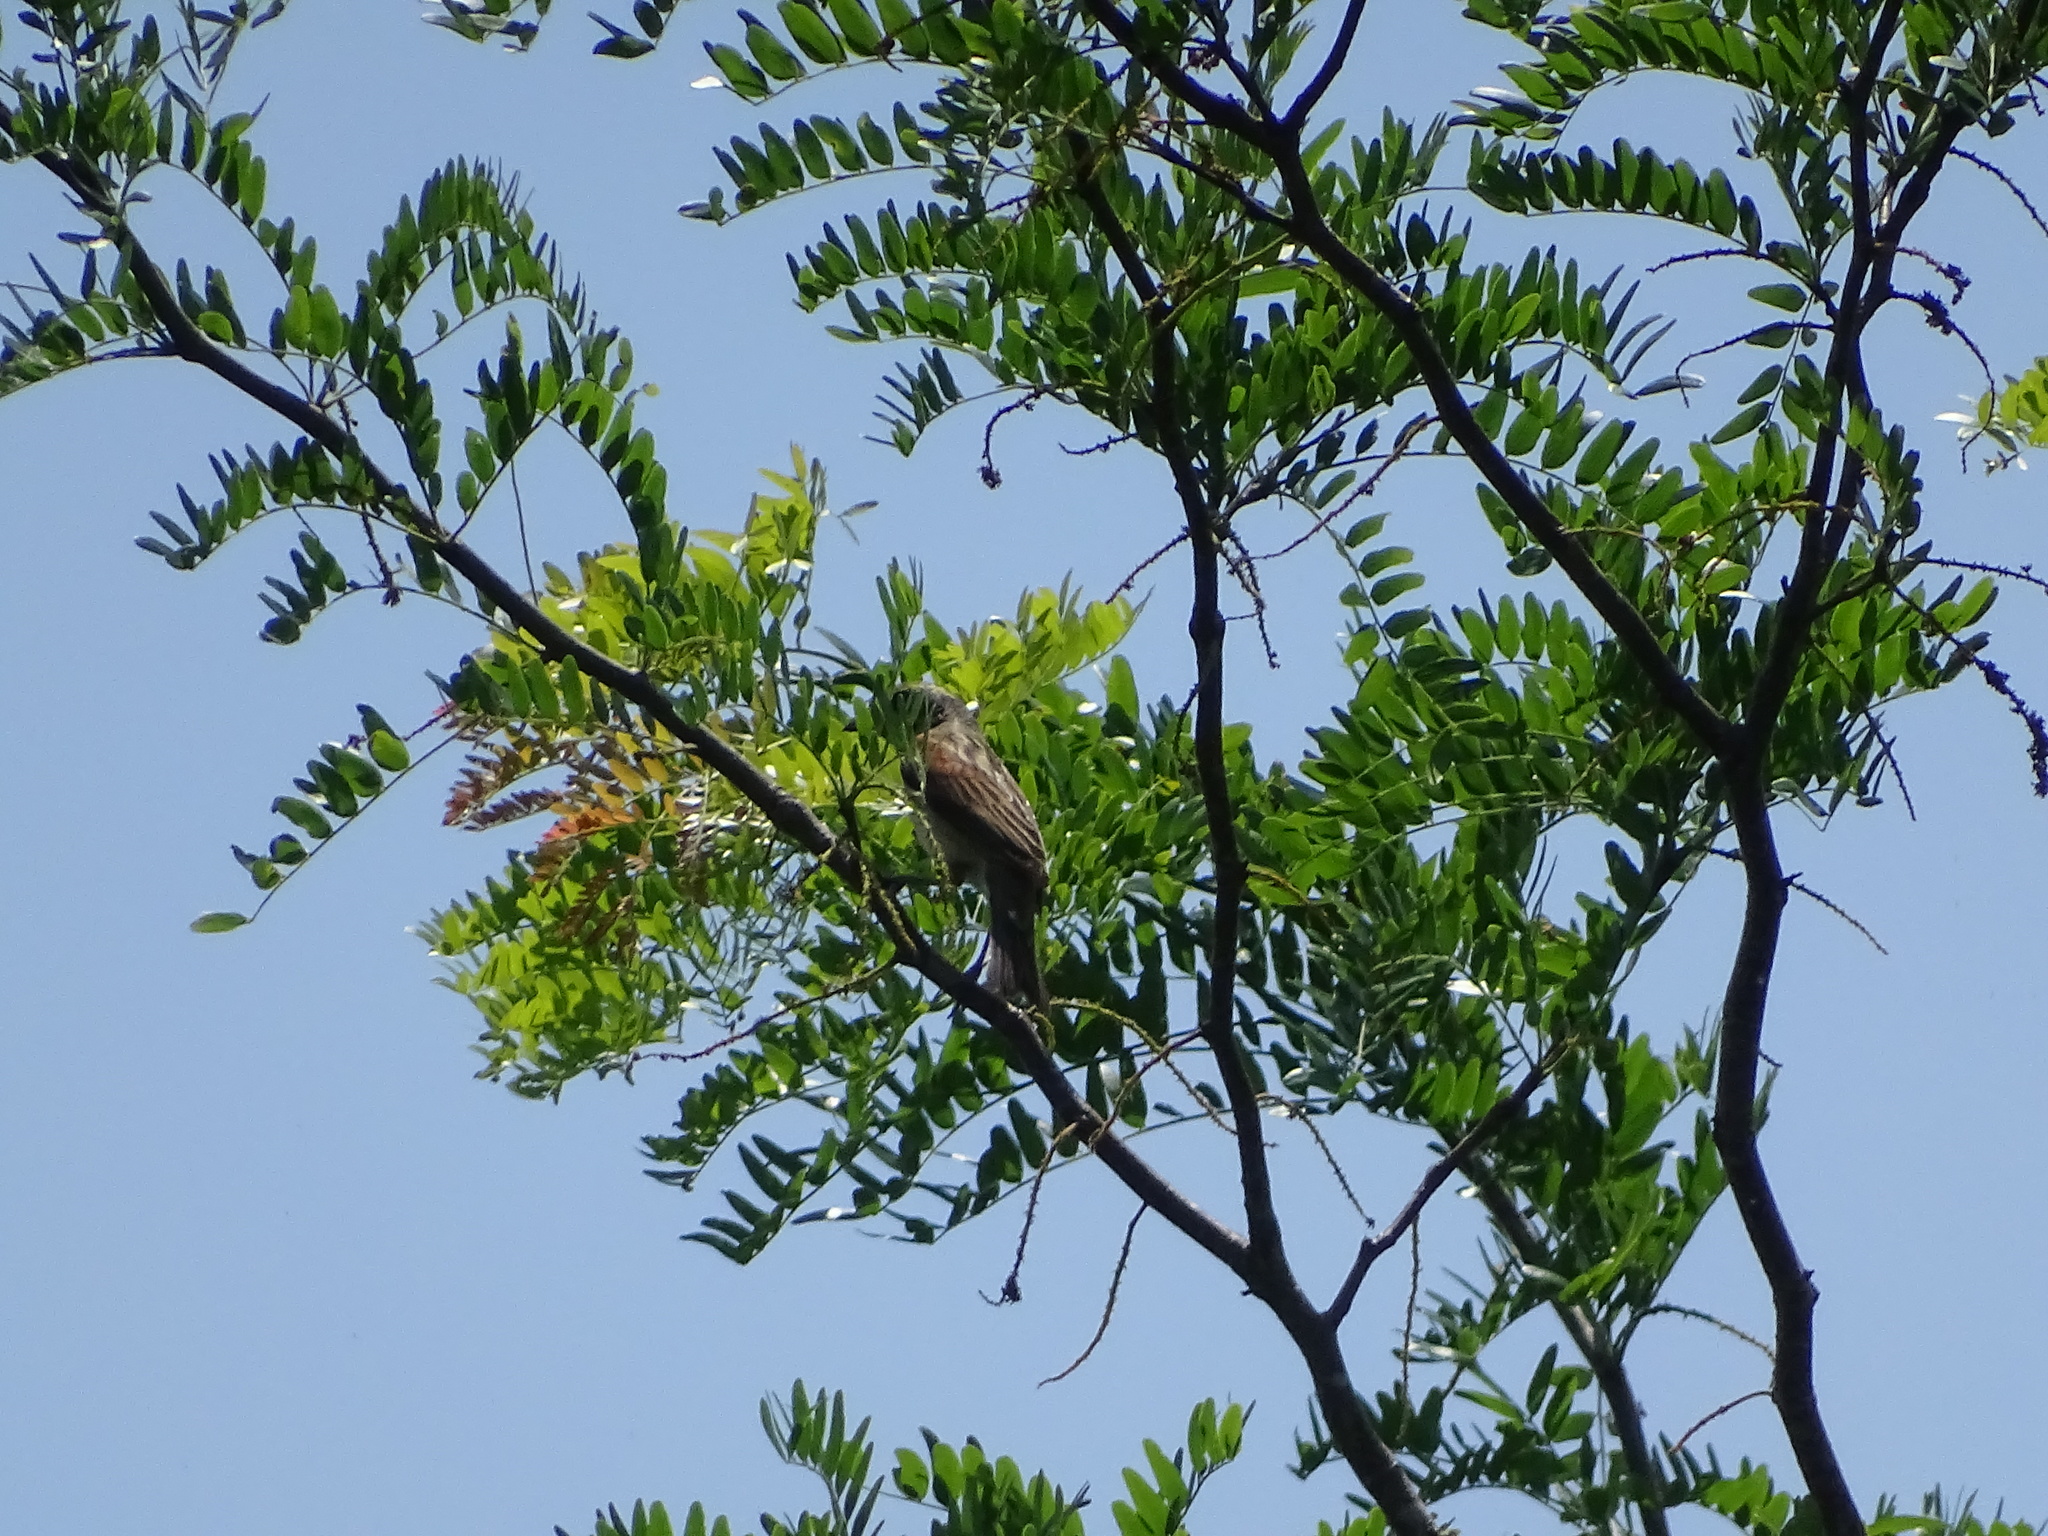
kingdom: Animalia
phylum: Chordata
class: Aves
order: Passeriformes
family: Cardinalidae
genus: Spiza
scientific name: Spiza americana
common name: Dickcissel
